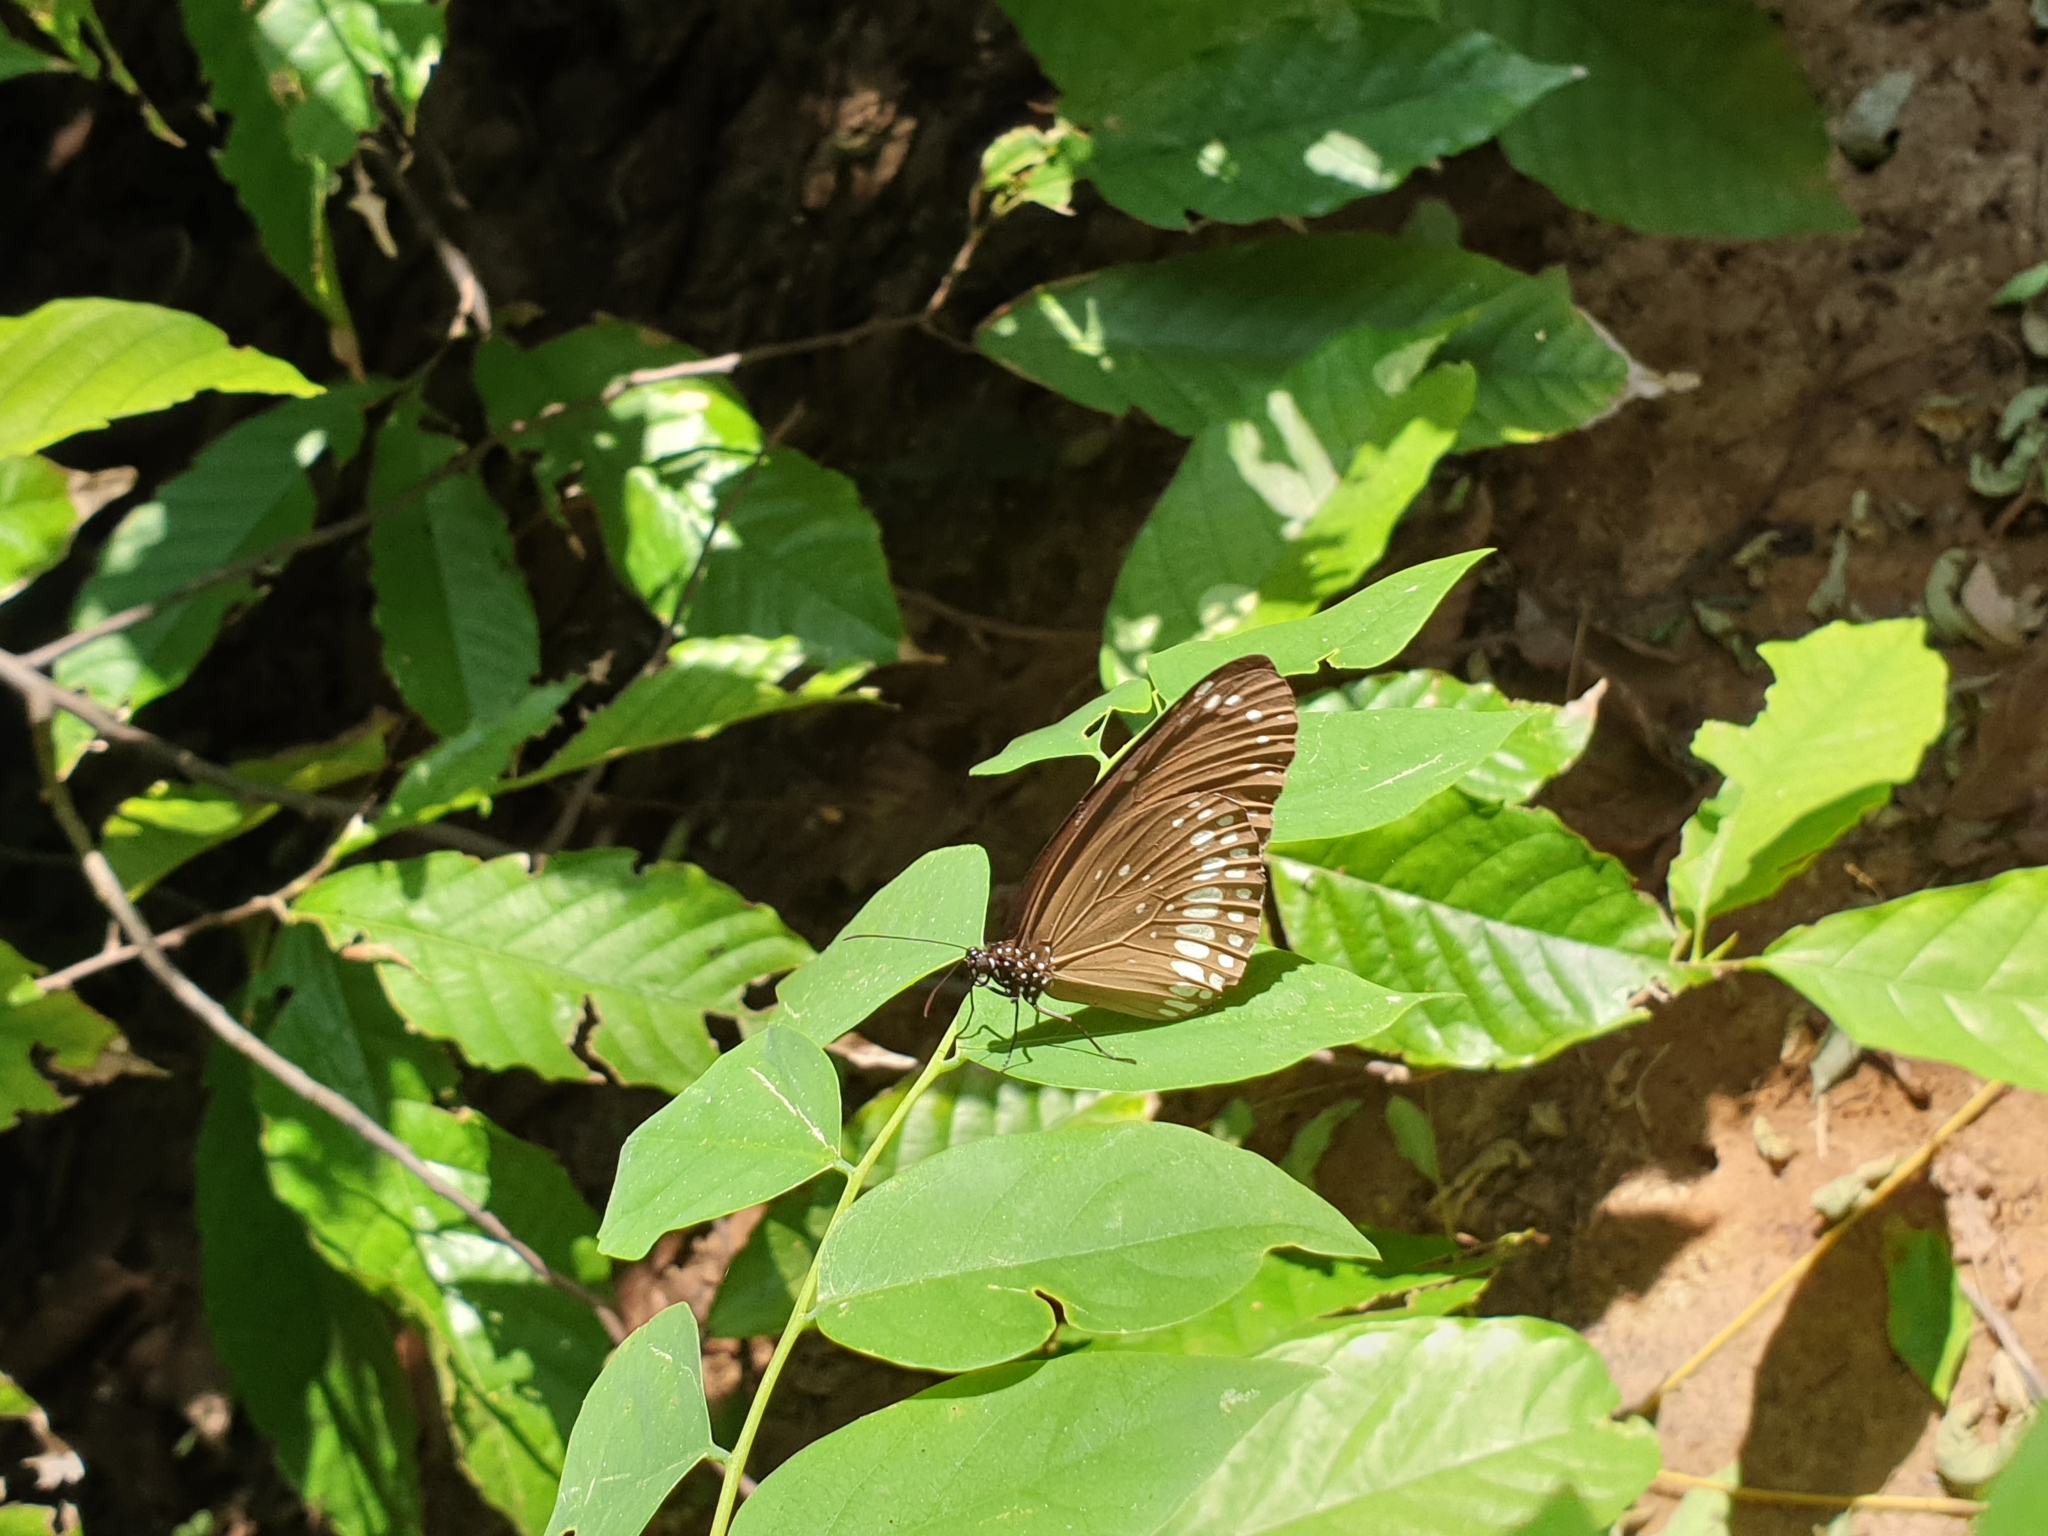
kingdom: Animalia
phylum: Arthropoda
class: Insecta
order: Lepidoptera
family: Nymphalidae
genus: Euploea
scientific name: Euploea core
